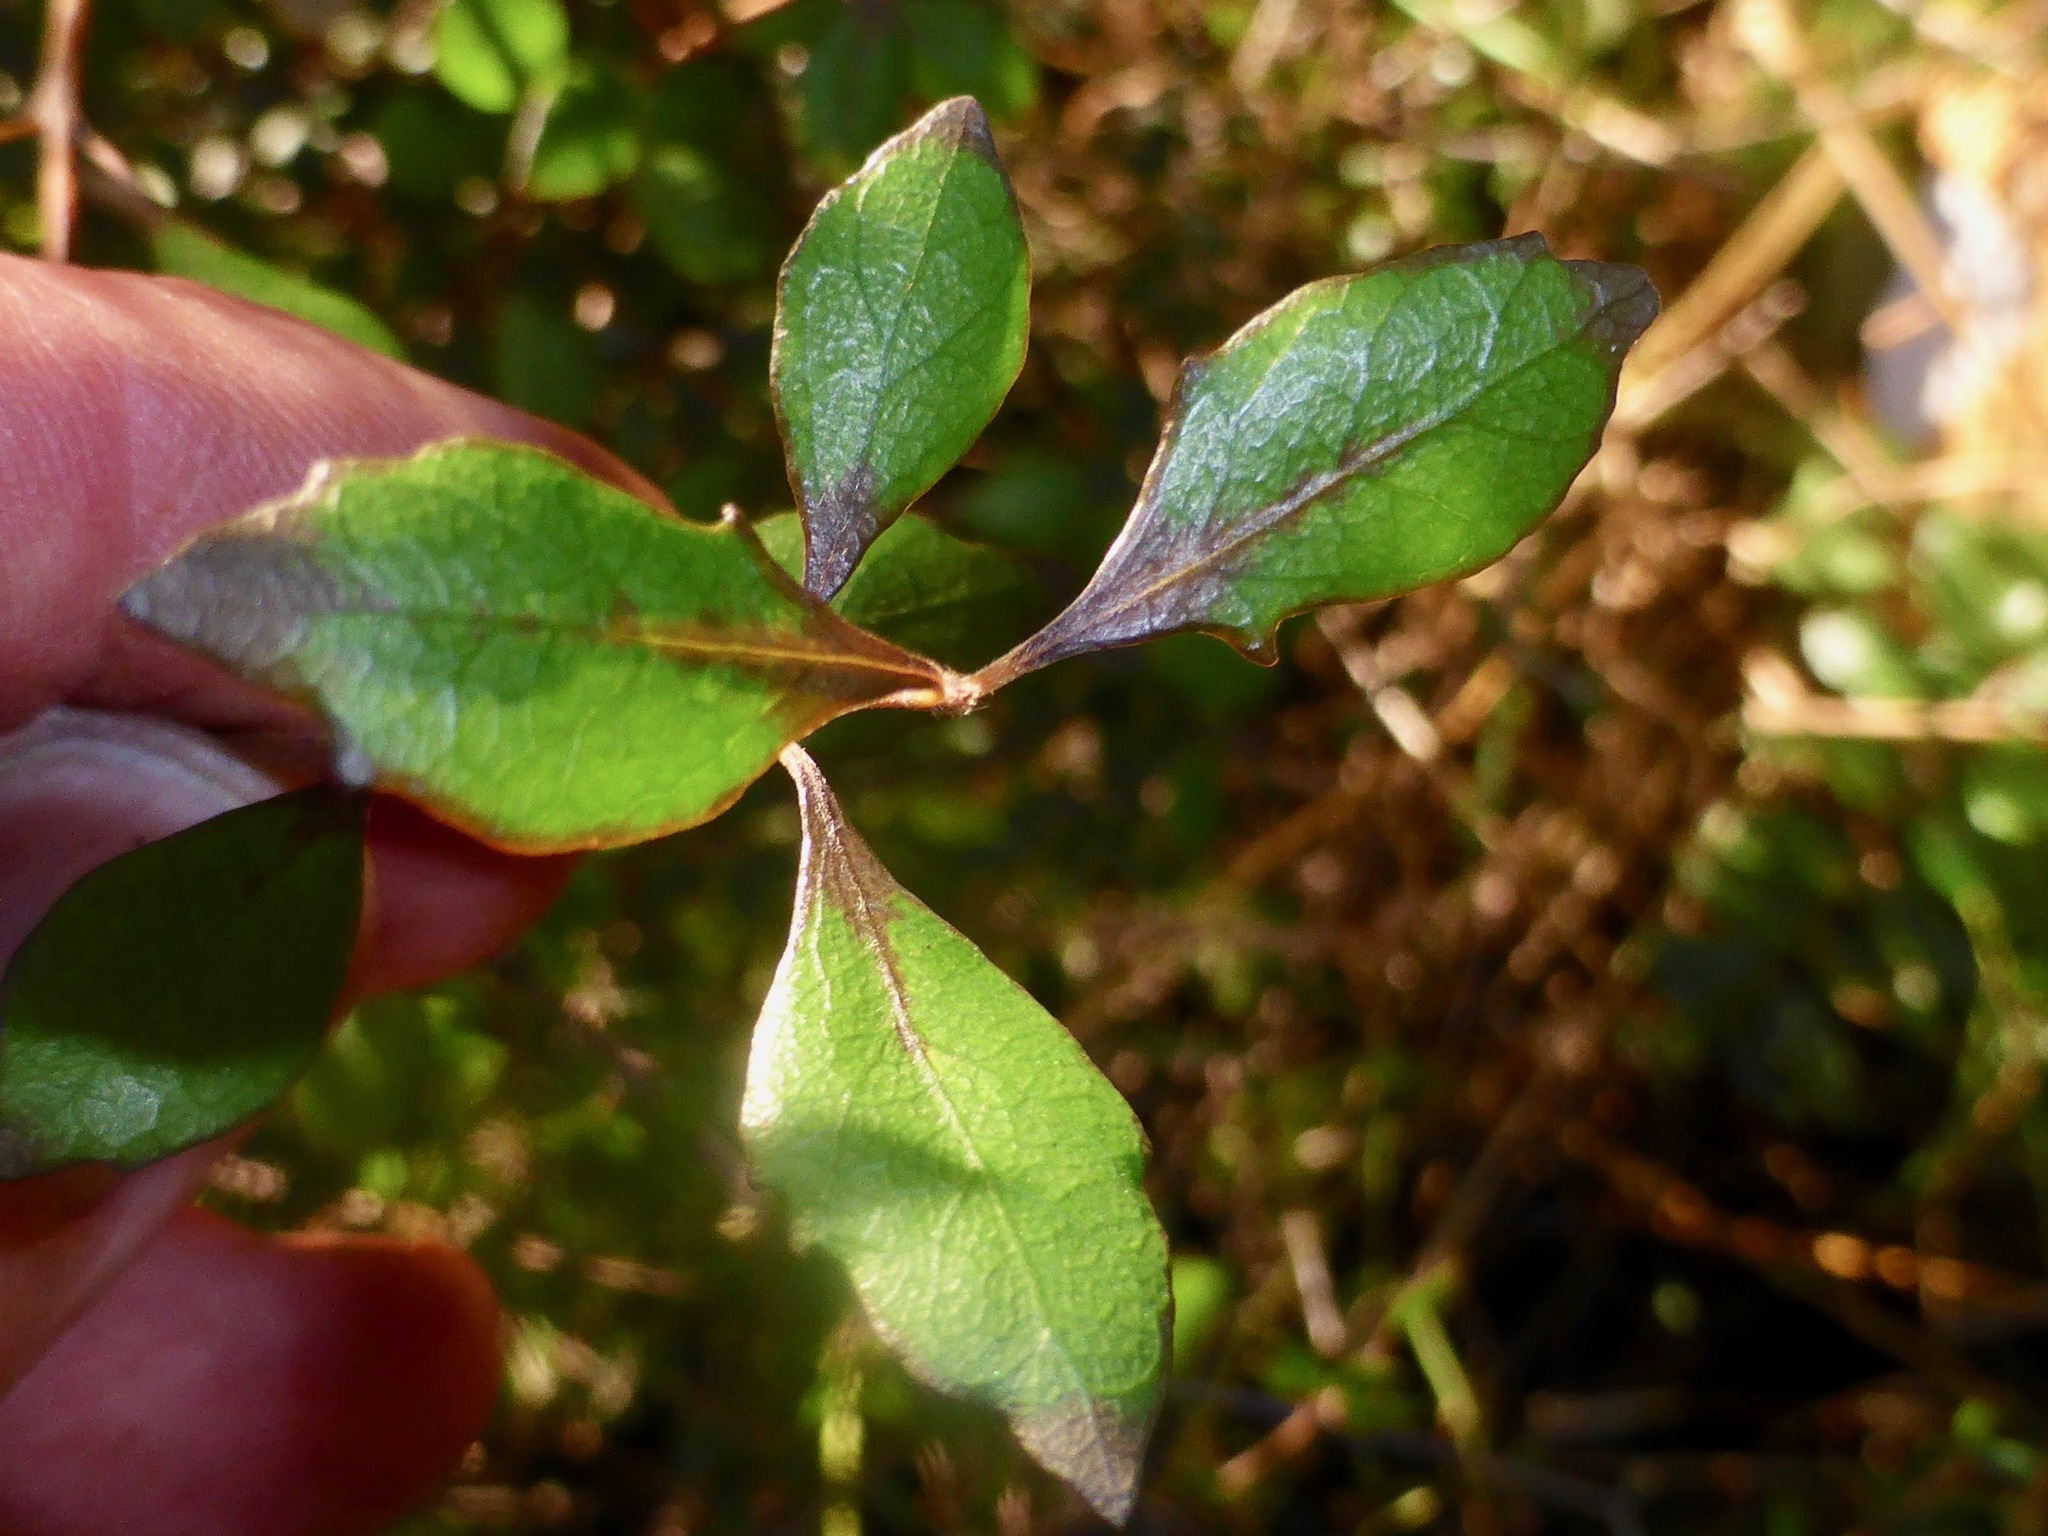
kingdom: Plantae
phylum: Tracheophyta
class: Magnoliopsida
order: Oxalidales
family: Elaeocarpaceae
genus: Aristotelia
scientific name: Aristotelia fruticosa
